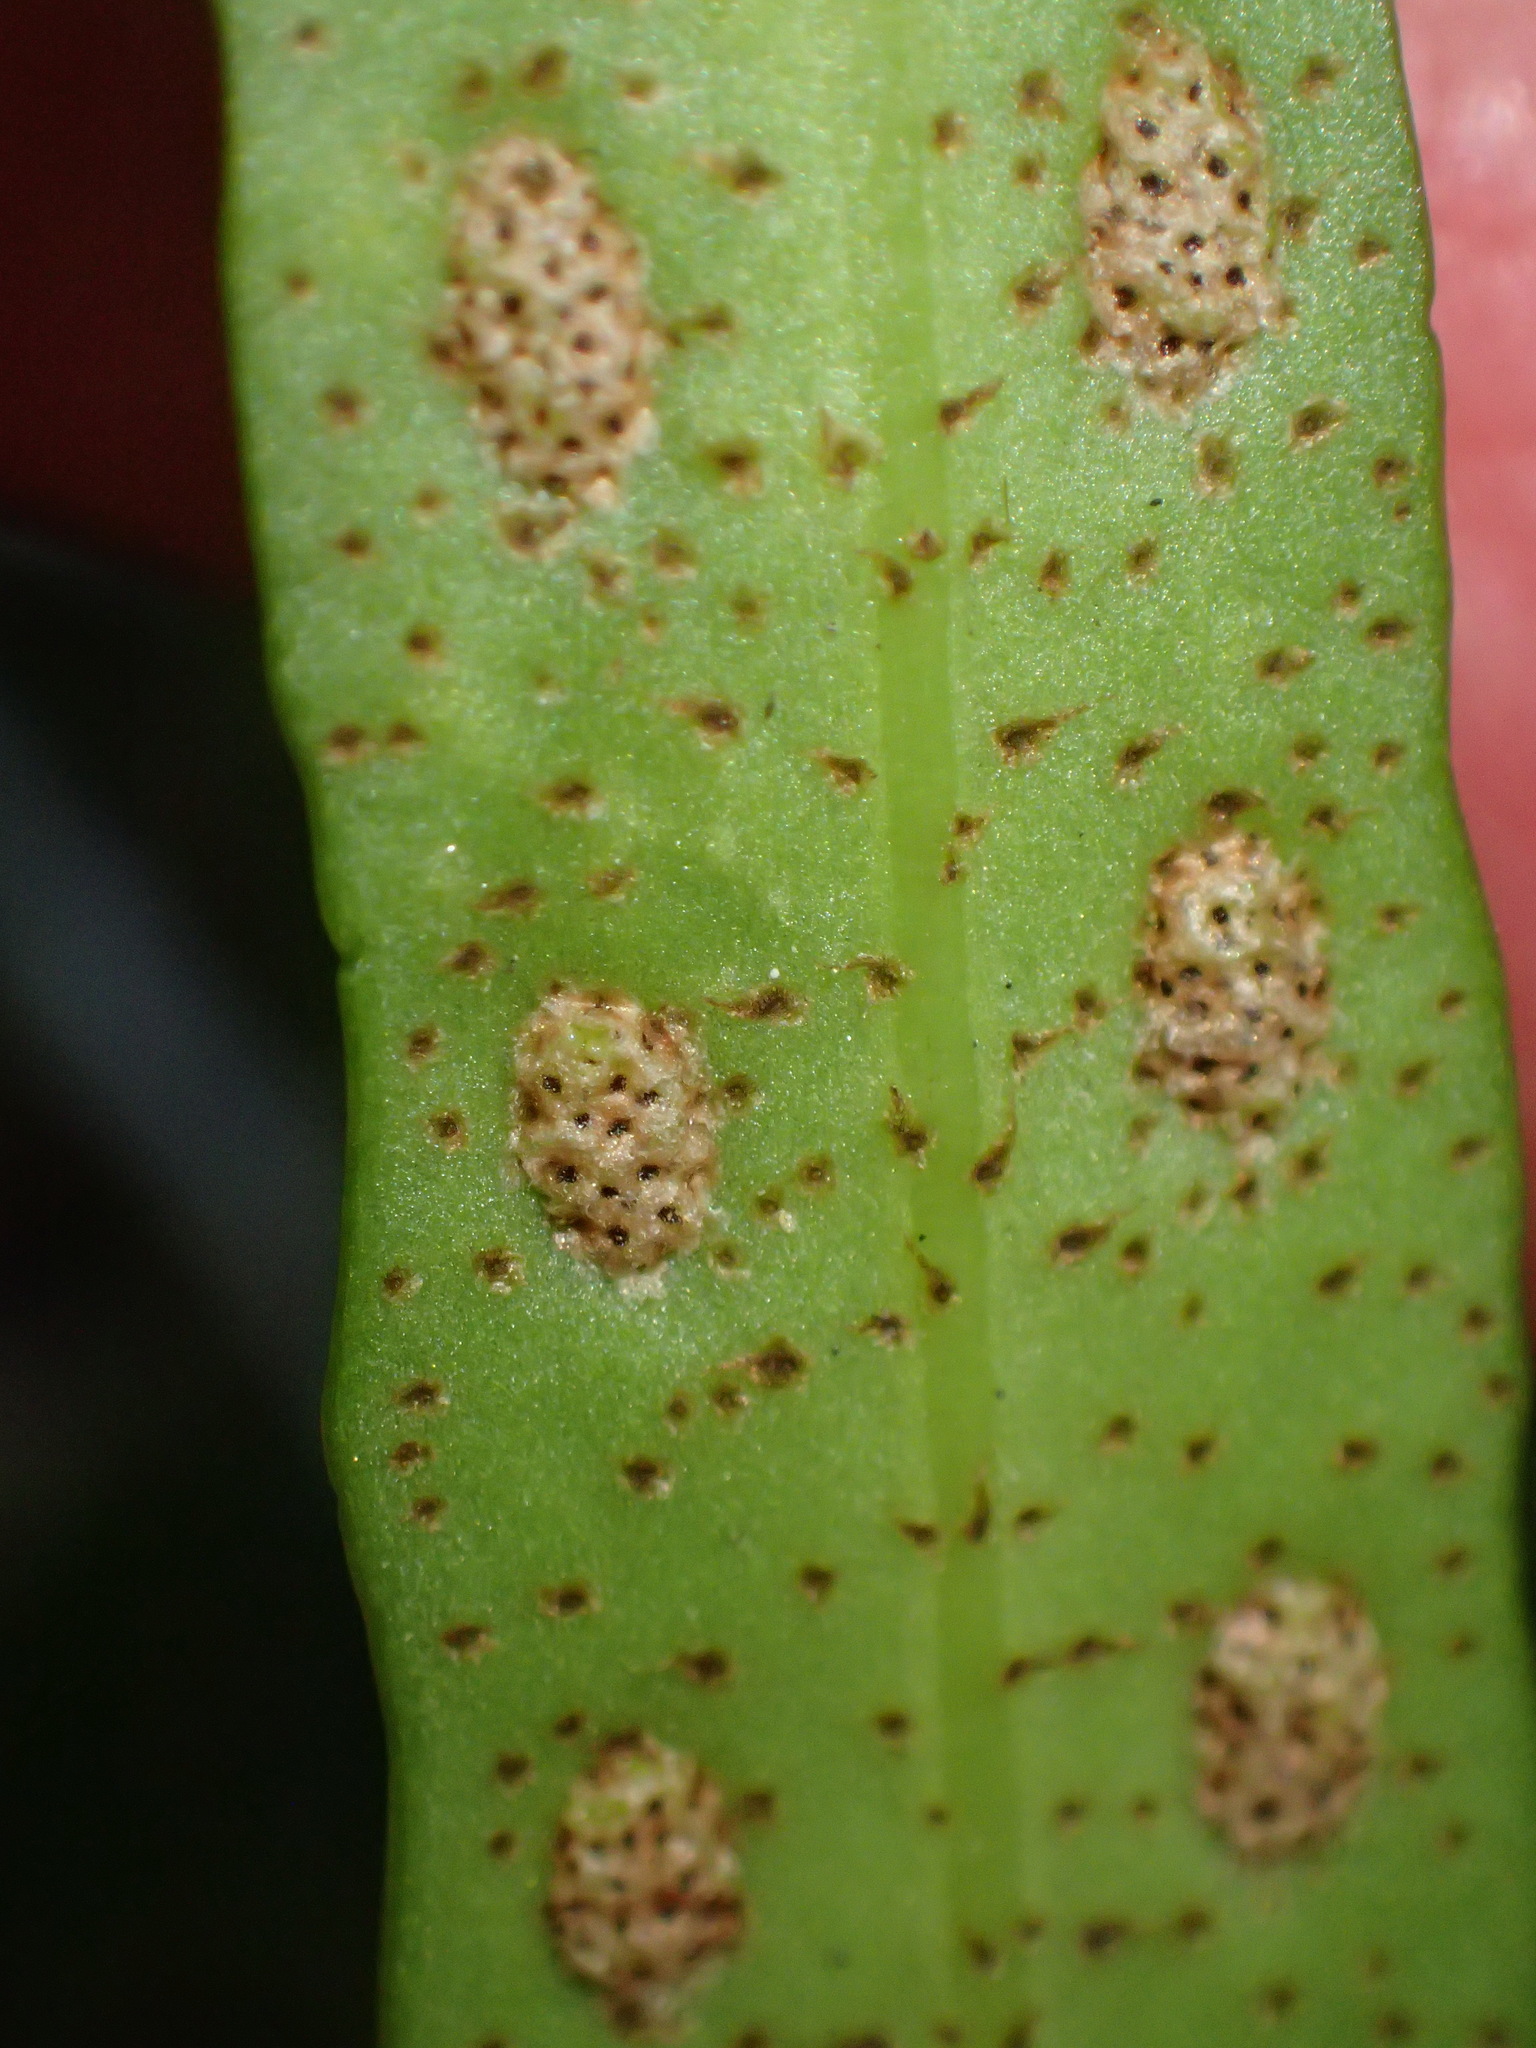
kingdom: Plantae
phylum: Tracheophyta
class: Polypodiopsida
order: Polypodiales
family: Polypodiaceae
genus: Pleopeltis
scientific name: Pleopeltis macrocarpa
